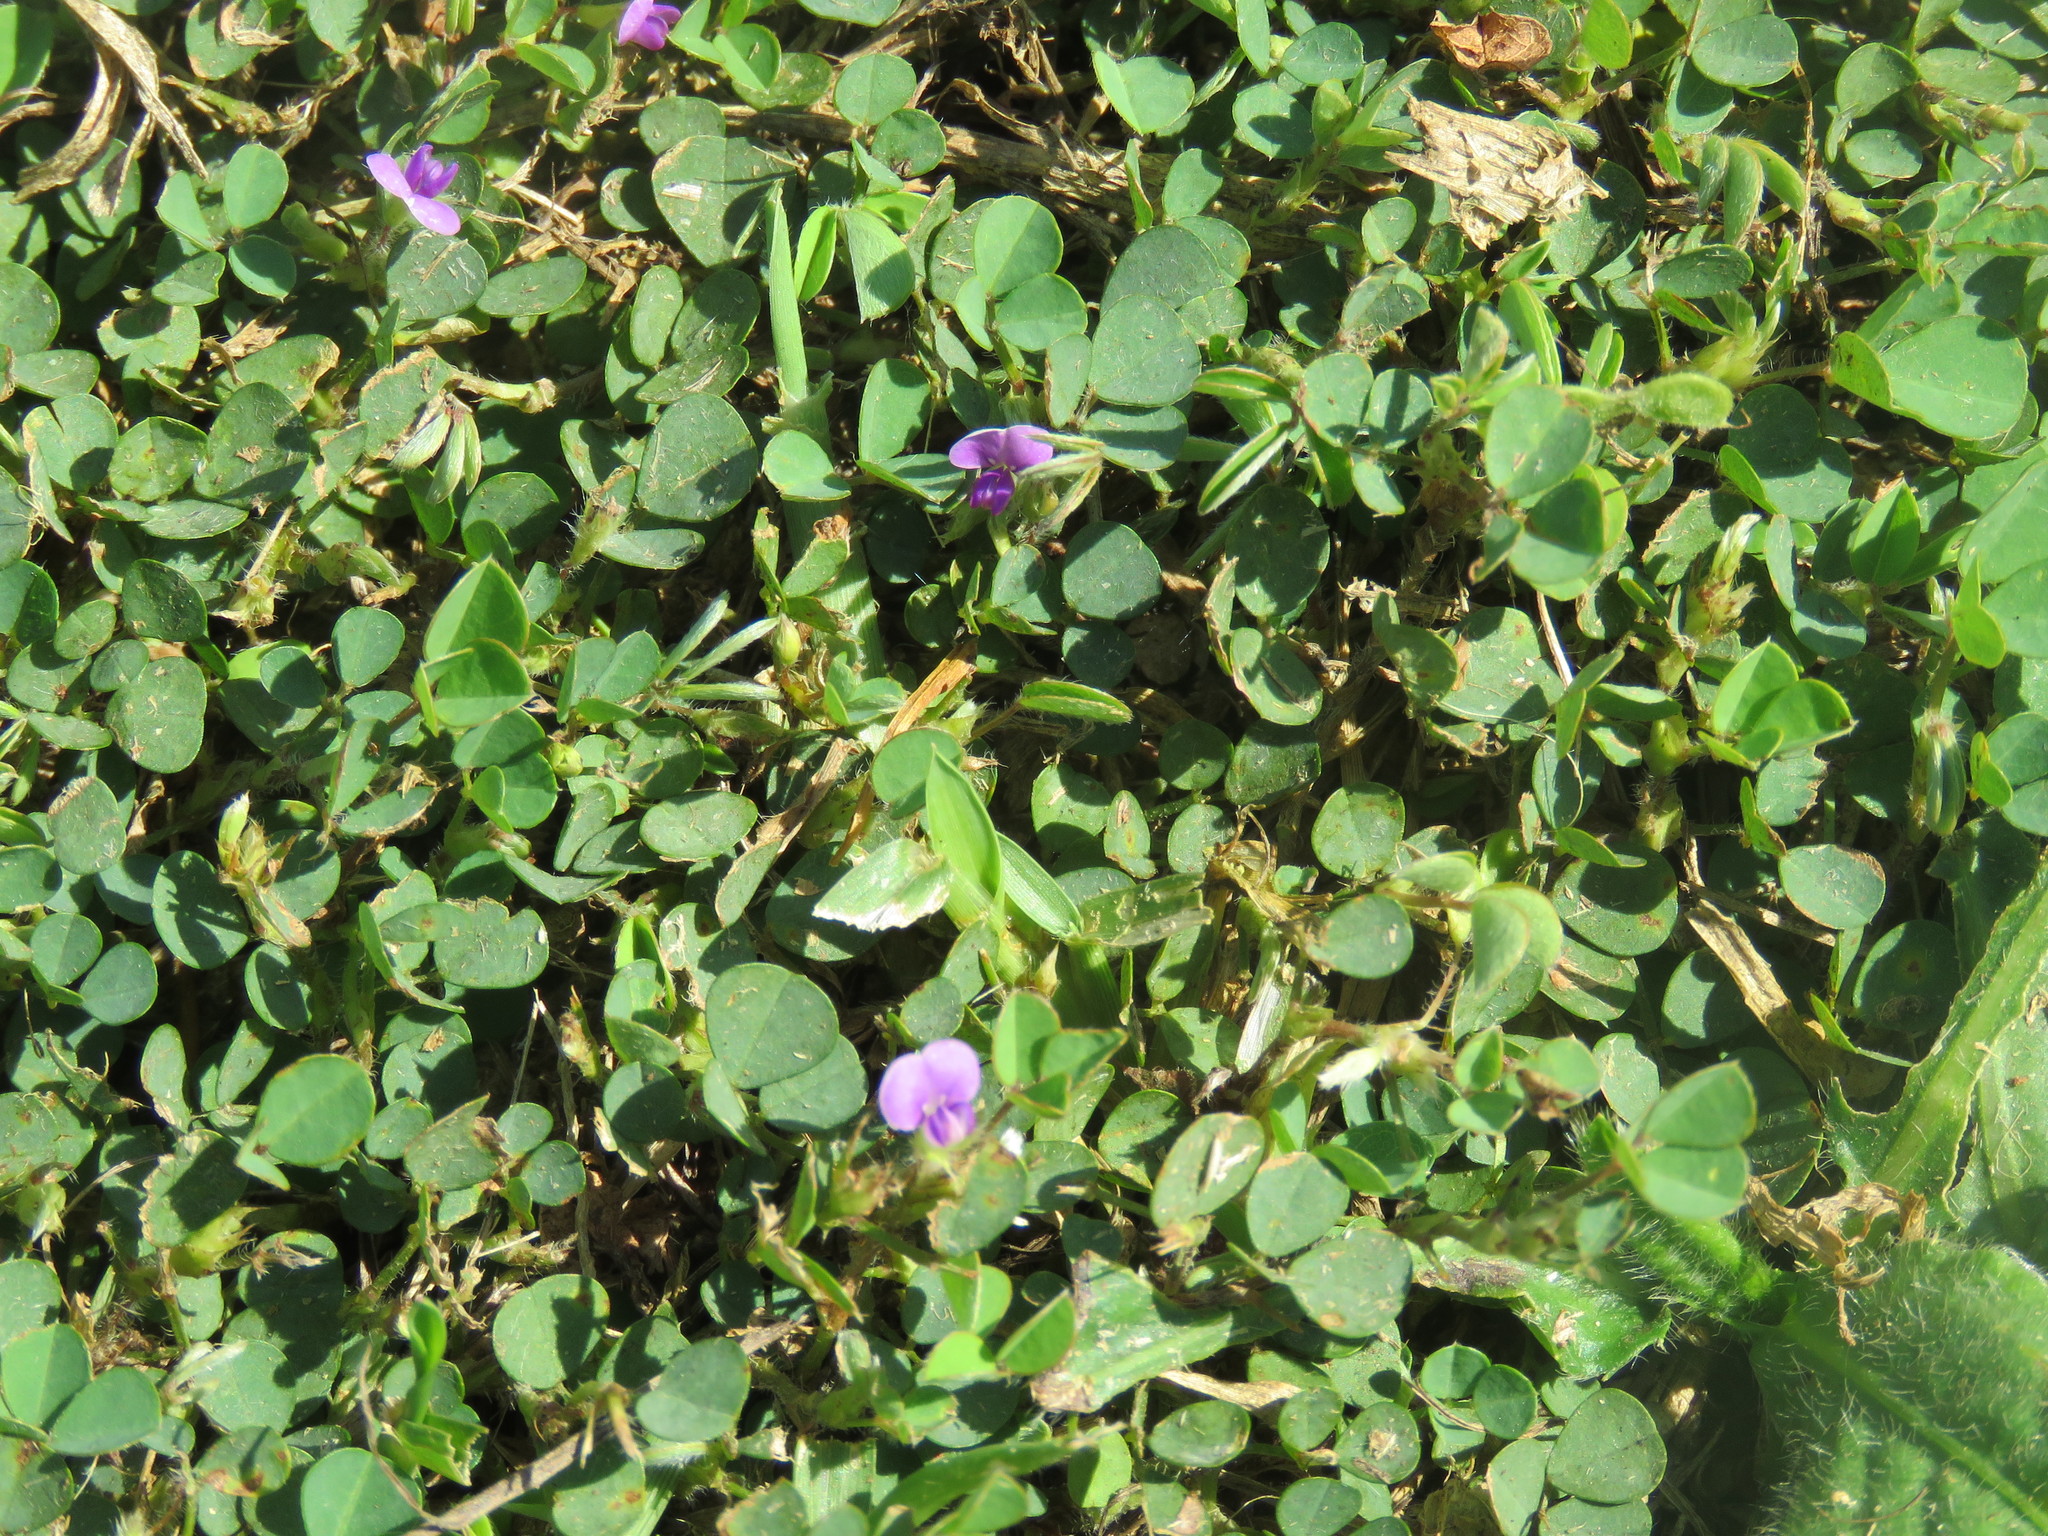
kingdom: Plantae
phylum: Tracheophyta
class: Magnoliopsida
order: Fabales
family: Fabaceae
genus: Grona
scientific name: Grona triflora
